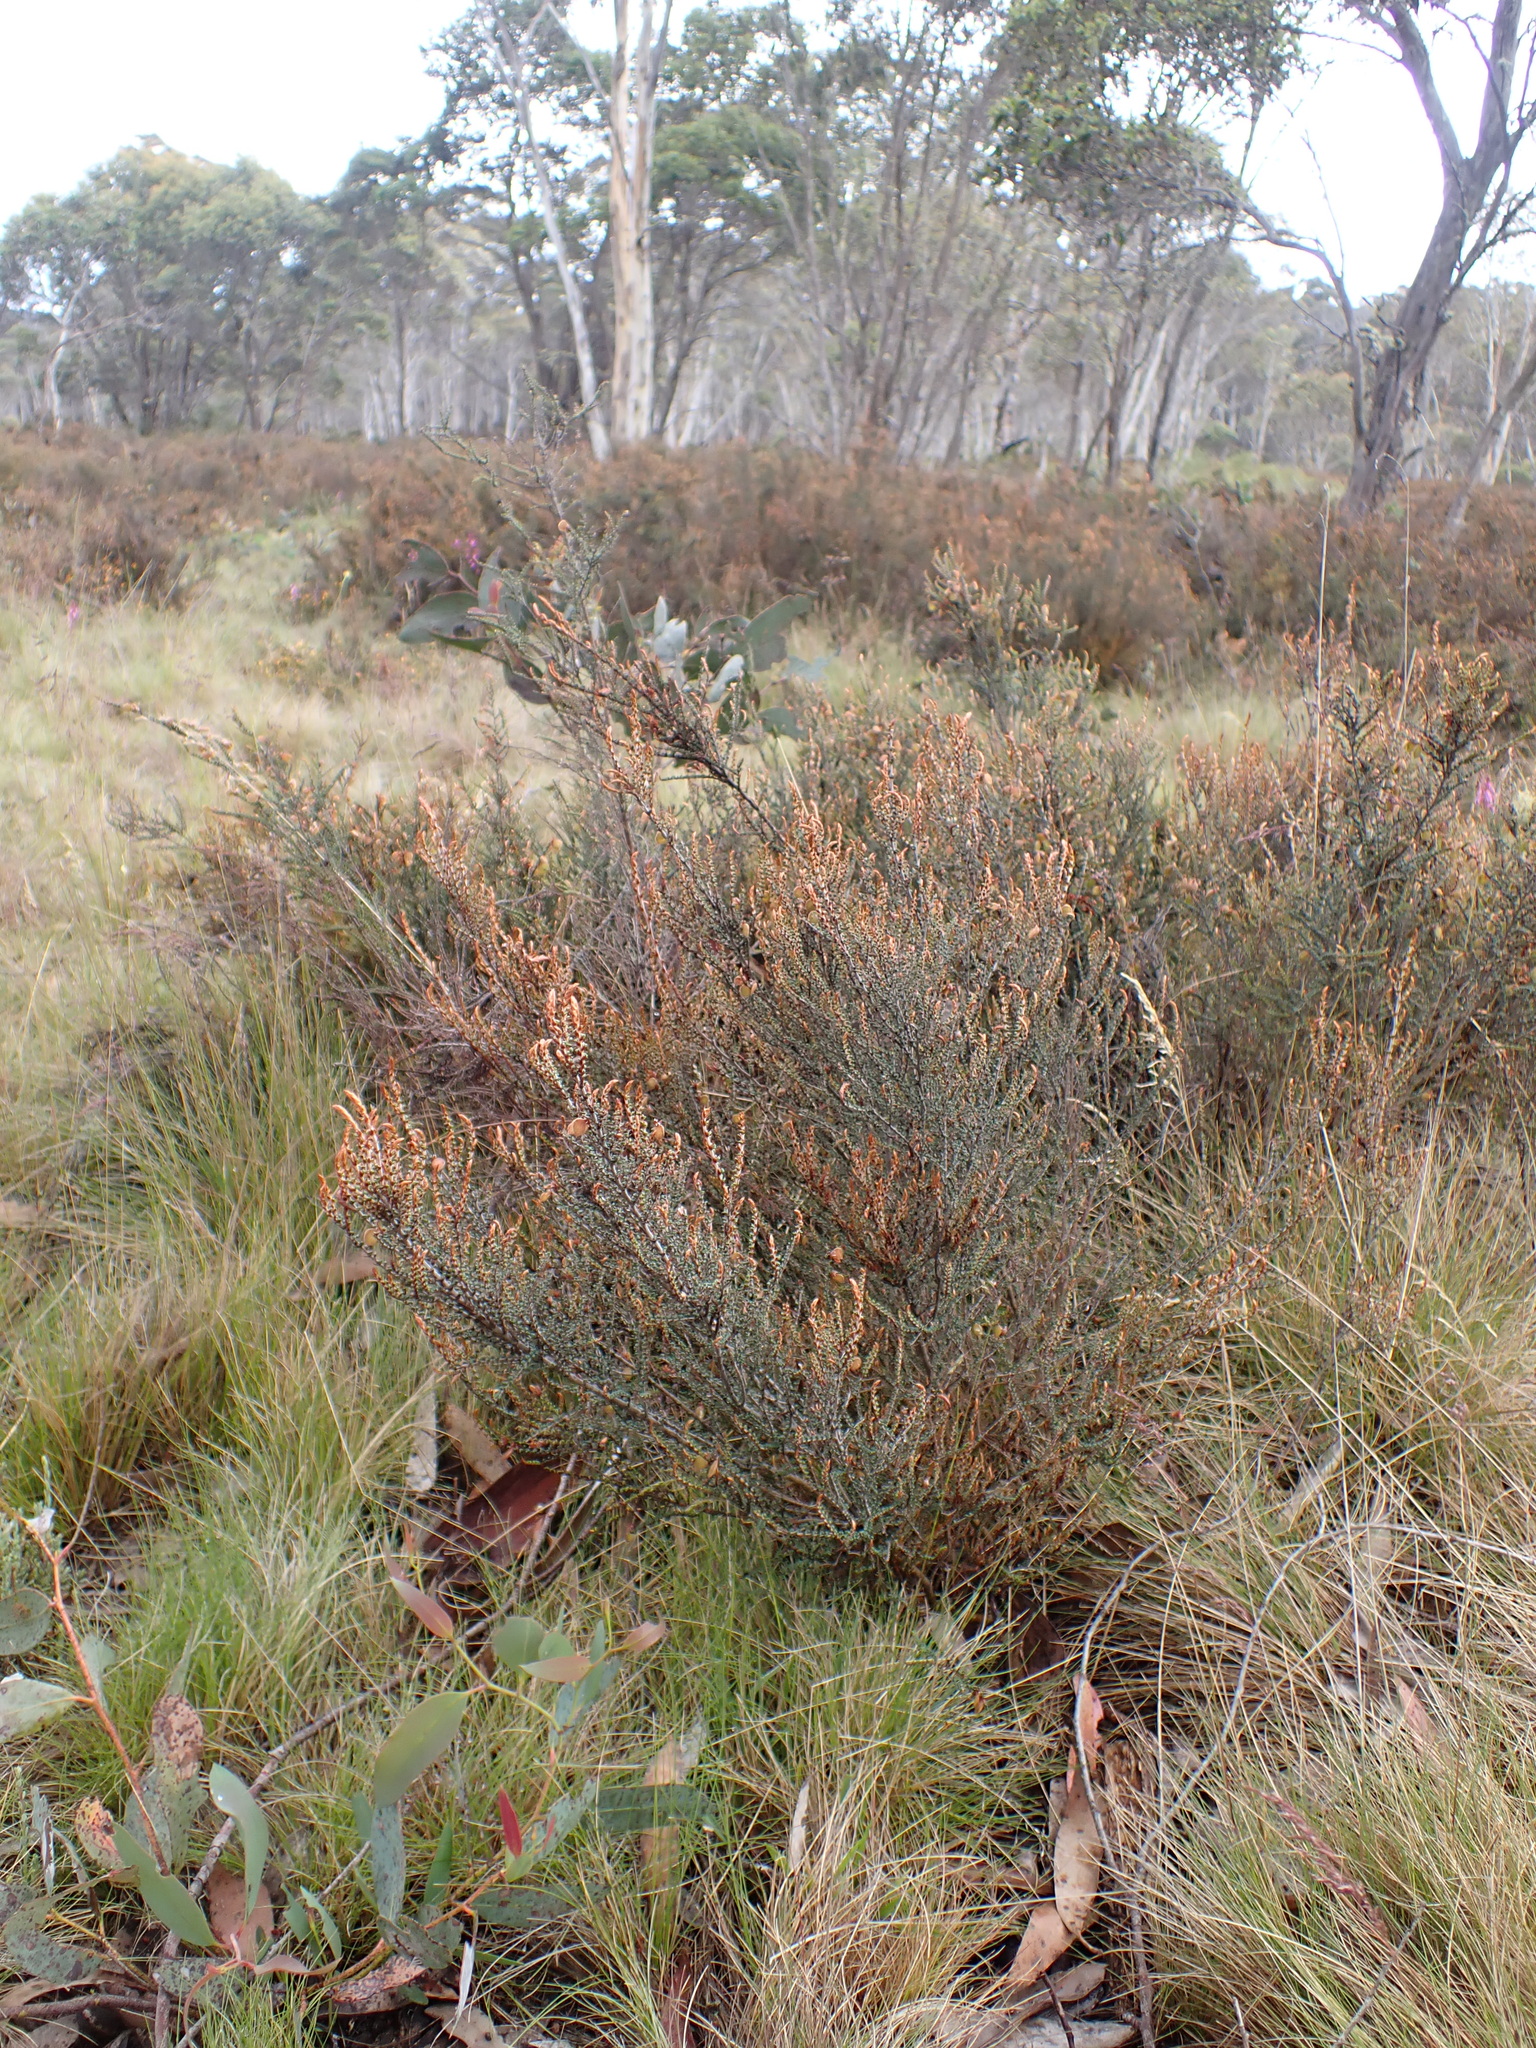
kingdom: Plantae
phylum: Tracheophyta
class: Magnoliopsida
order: Fabales
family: Fabaceae
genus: Bossiaea
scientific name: Bossiaea distichoclada
